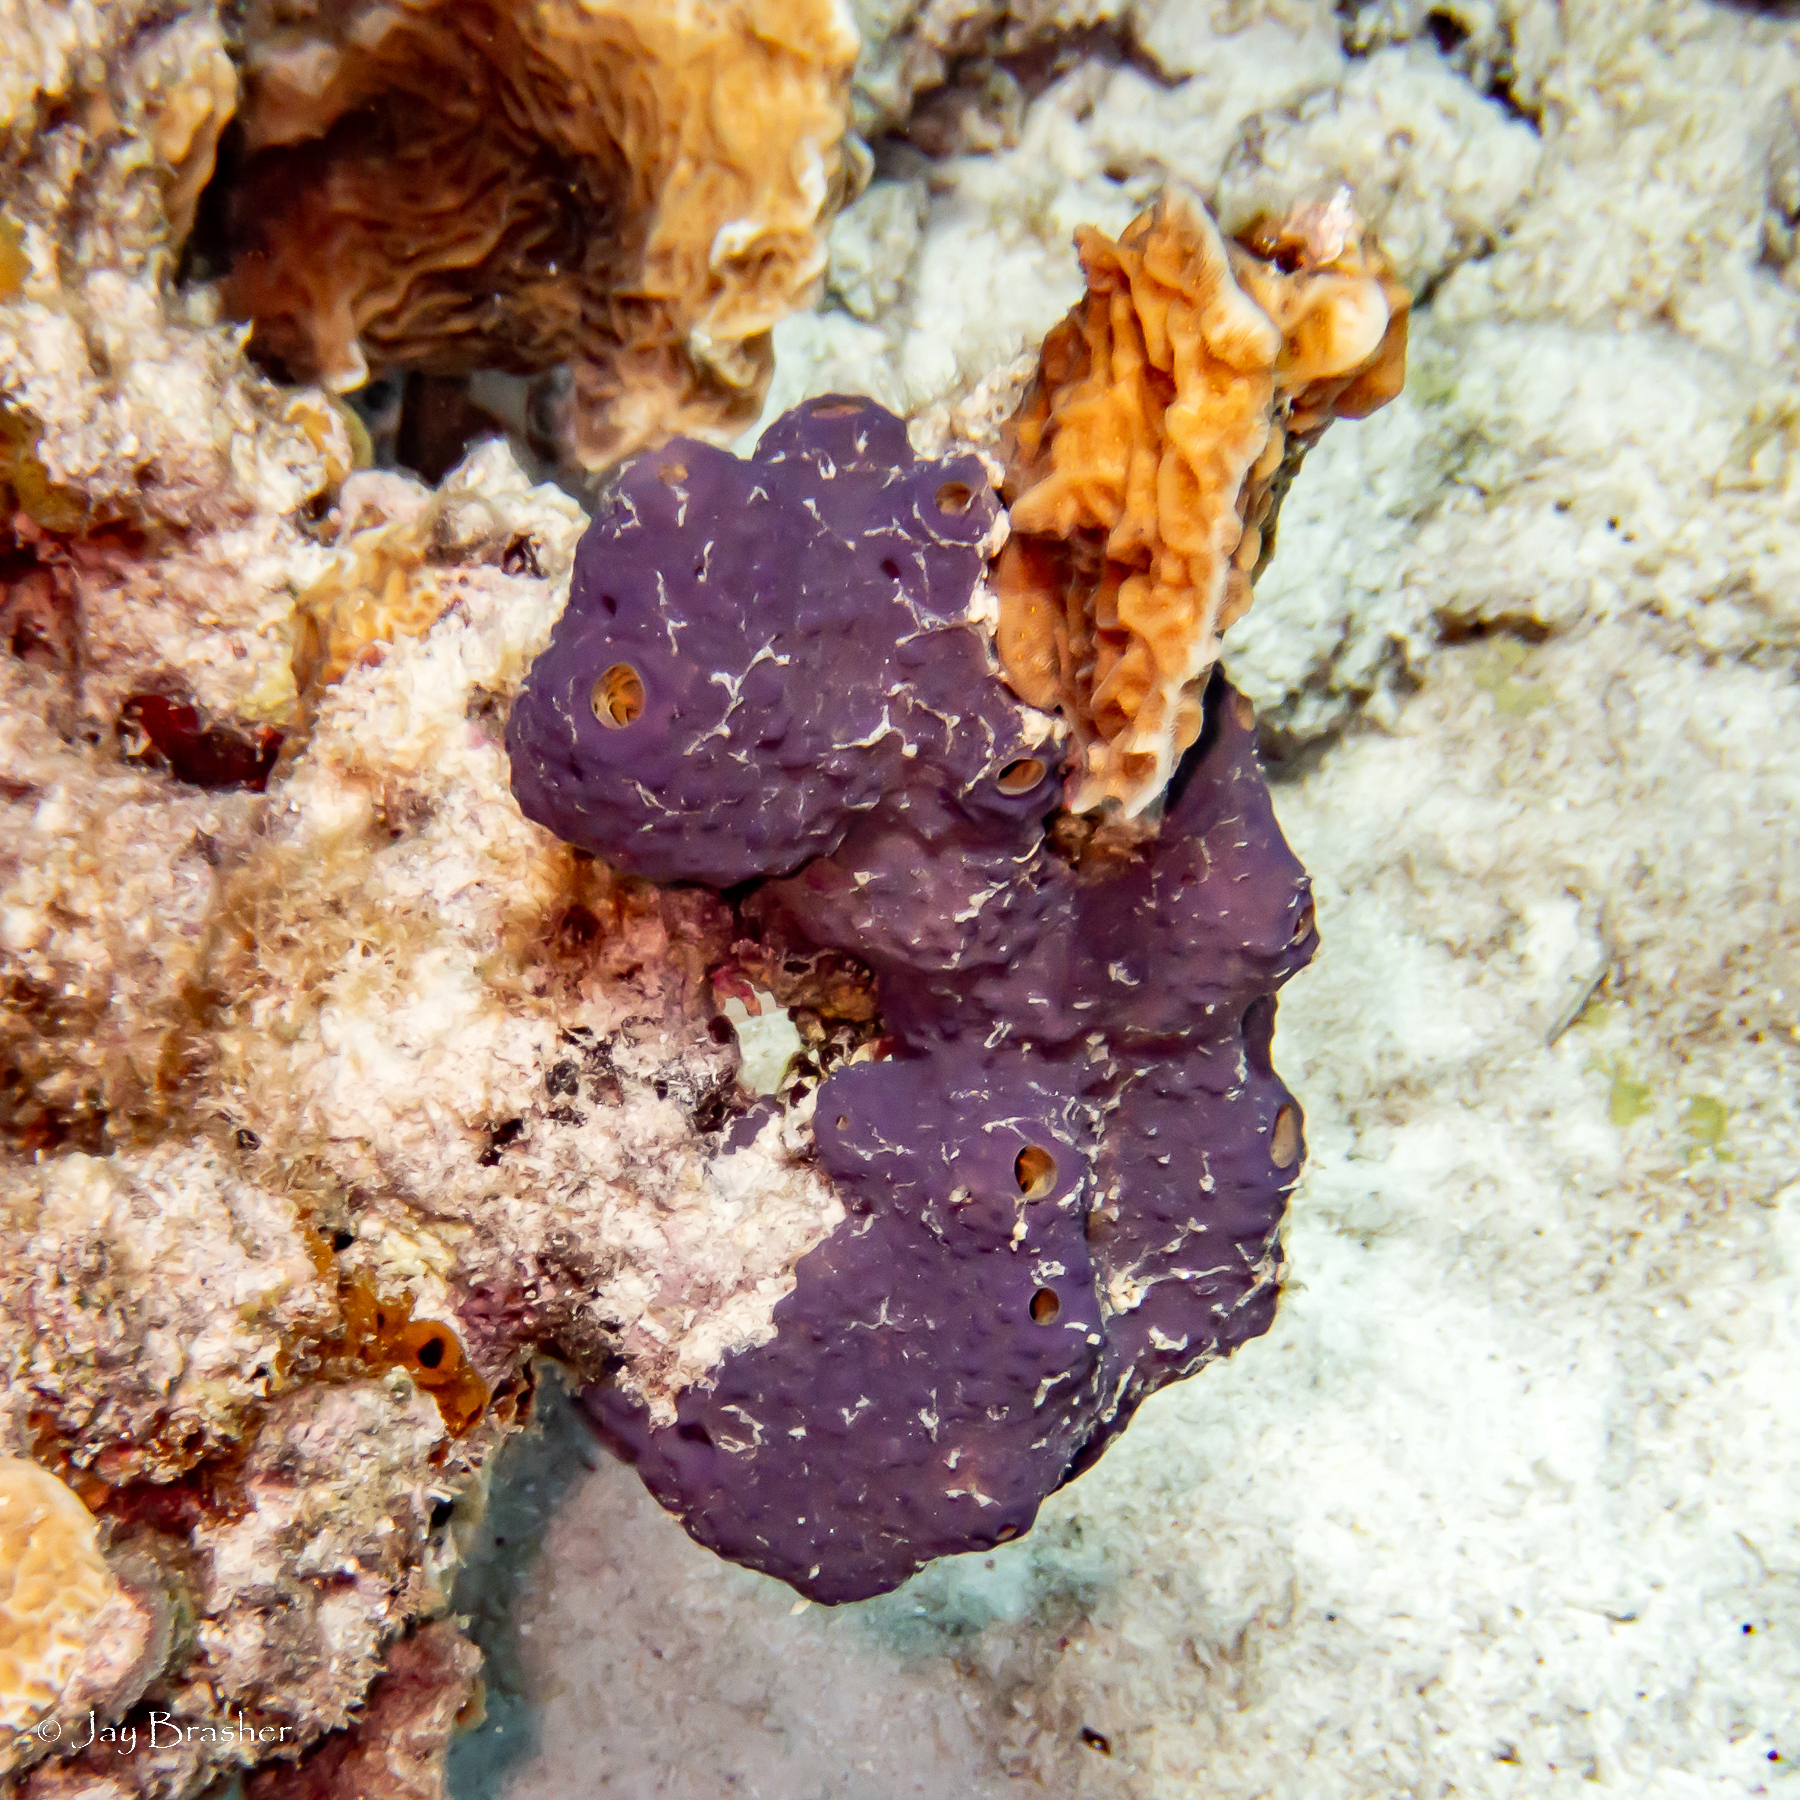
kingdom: Animalia
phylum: Cnidaria
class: Anthozoa
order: Scleractinia
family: Agariciidae
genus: Agaricia
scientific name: Agaricia agaricites
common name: Lettuce coral
